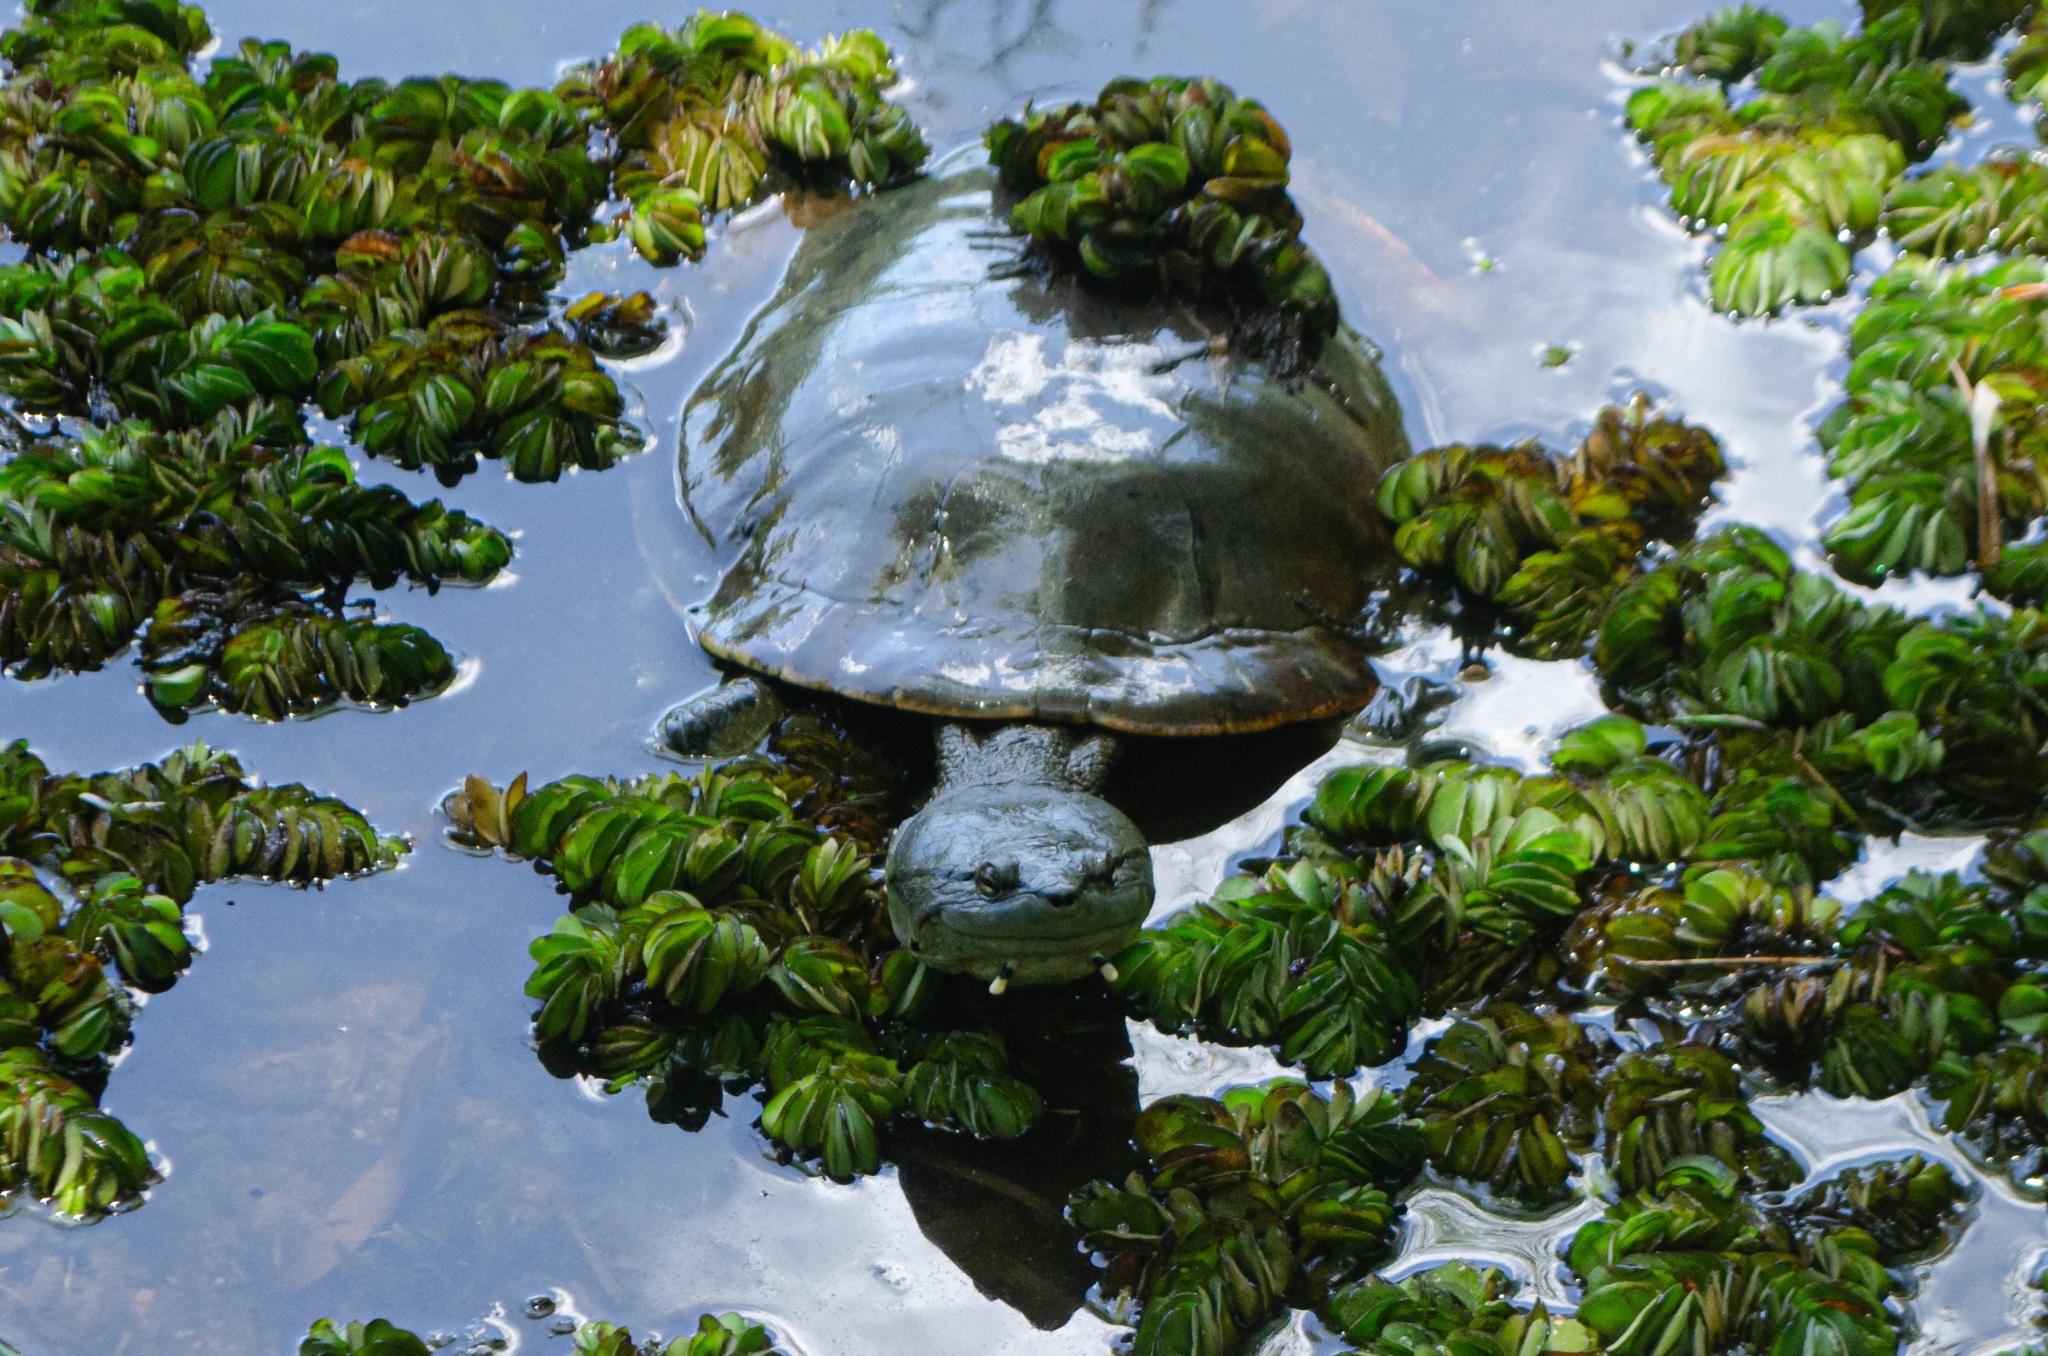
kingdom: Animalia
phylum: Chordata
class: Testudines
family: Chelidae
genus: Phrynops
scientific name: Phrynops hilarii
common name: Side-necked turtle of saint hillaire
